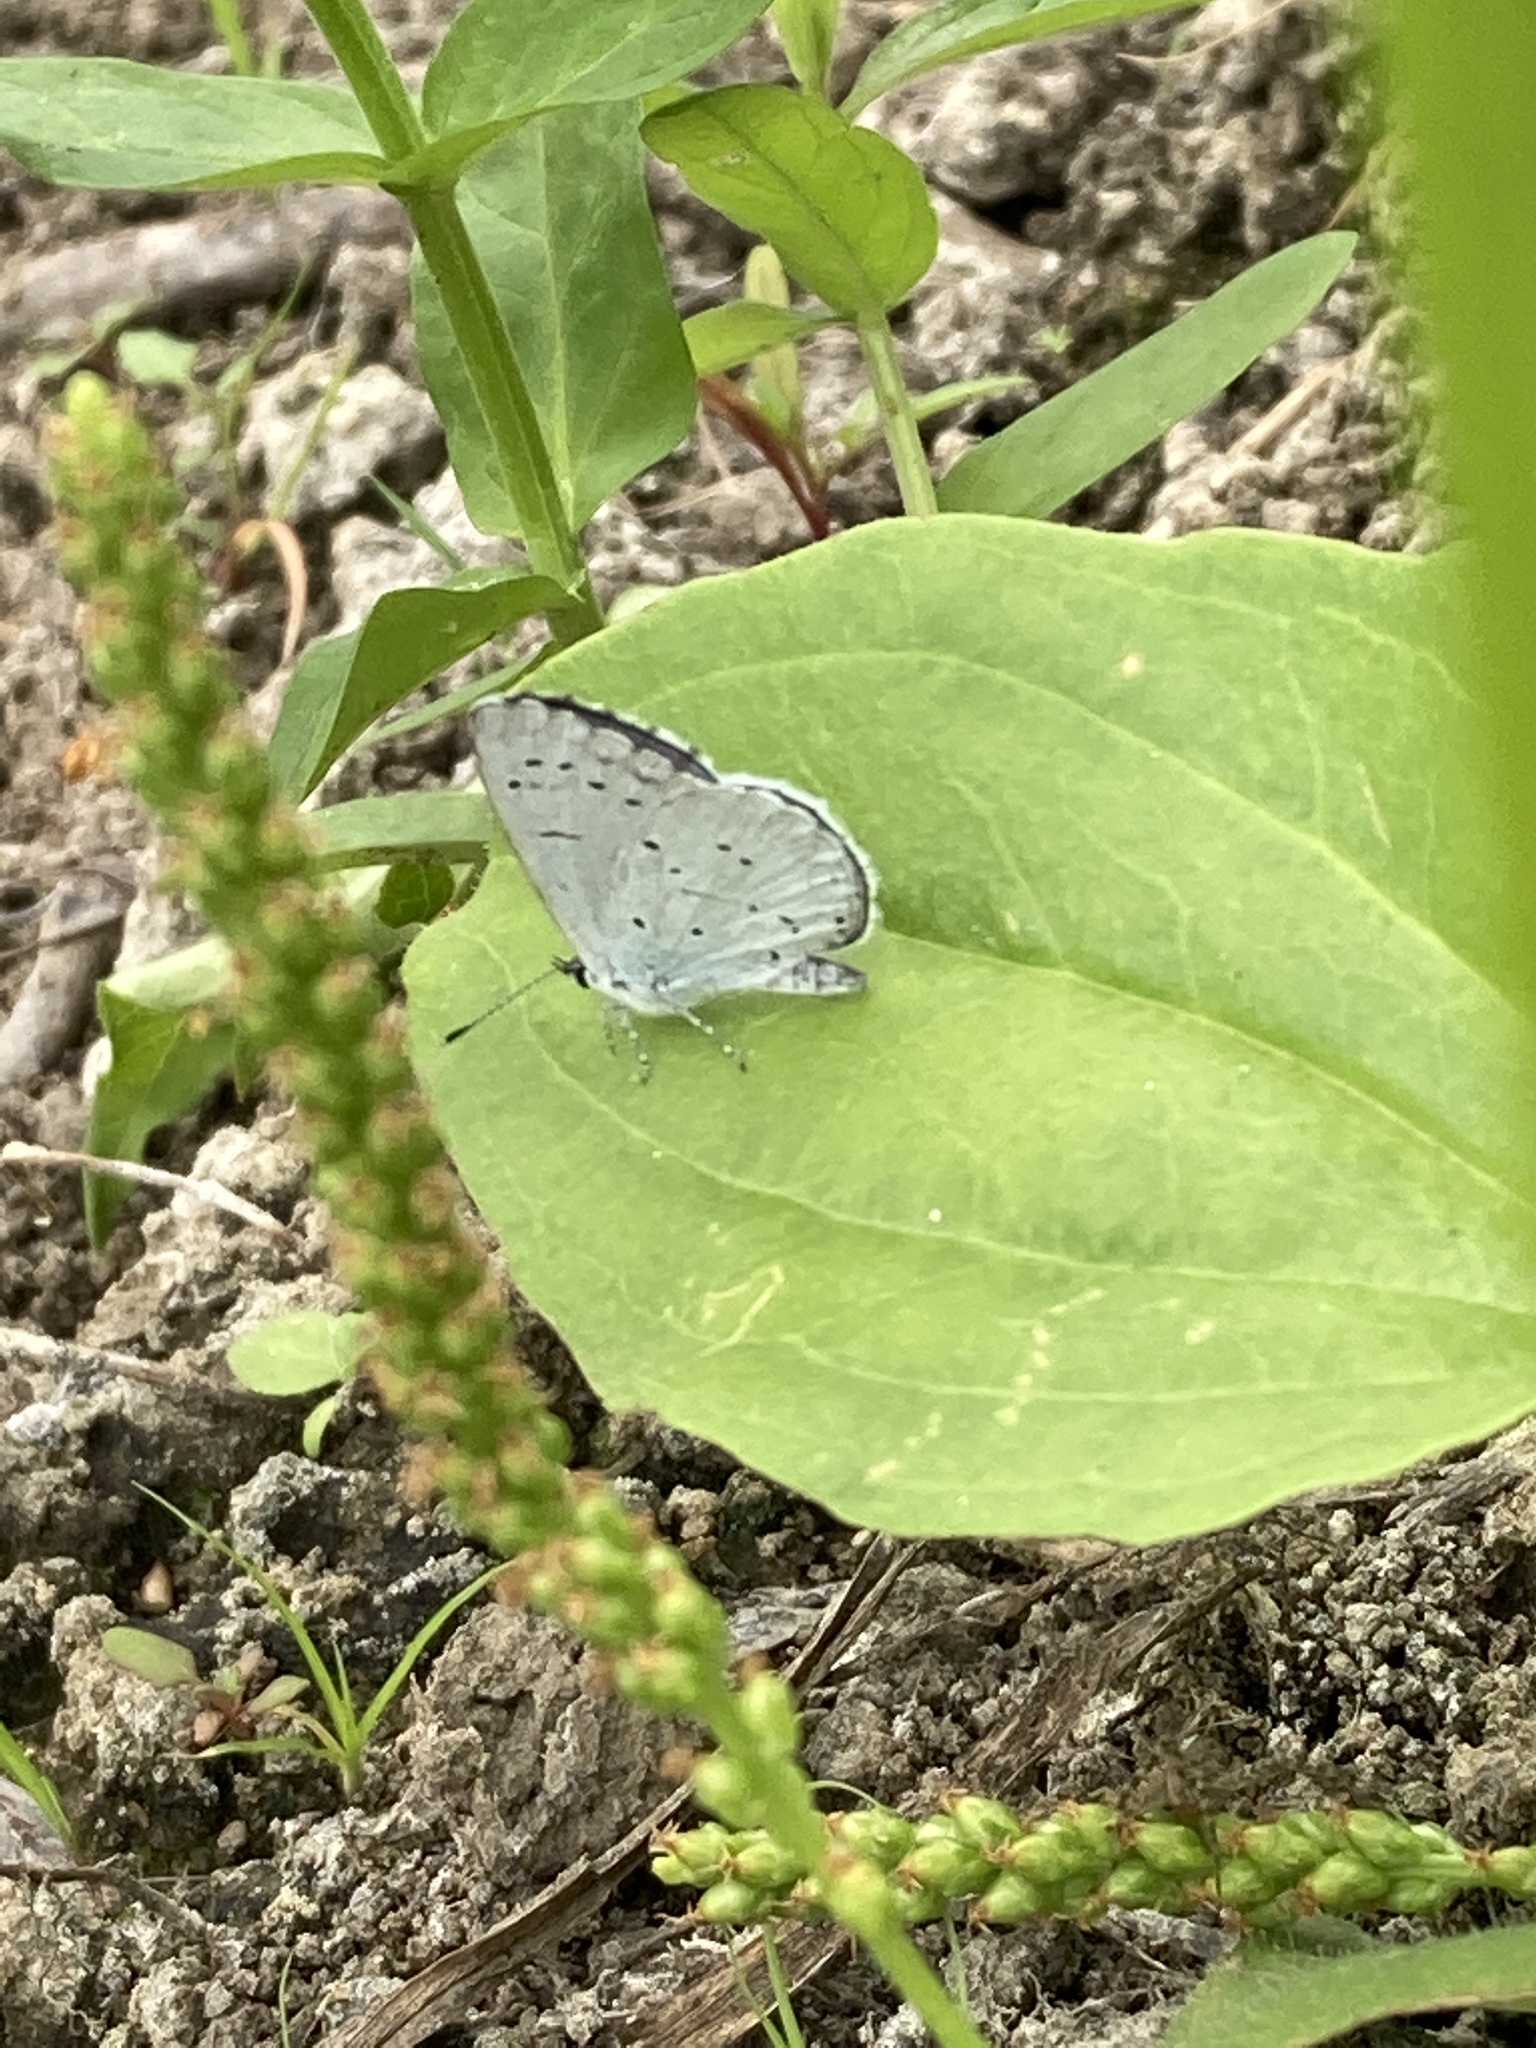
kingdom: Animalia
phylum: Arthropoda
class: Insecta
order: Lepidoptera
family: Lycaenidae
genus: Celastrina
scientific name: Celastrina argiolus
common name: Holly blue
